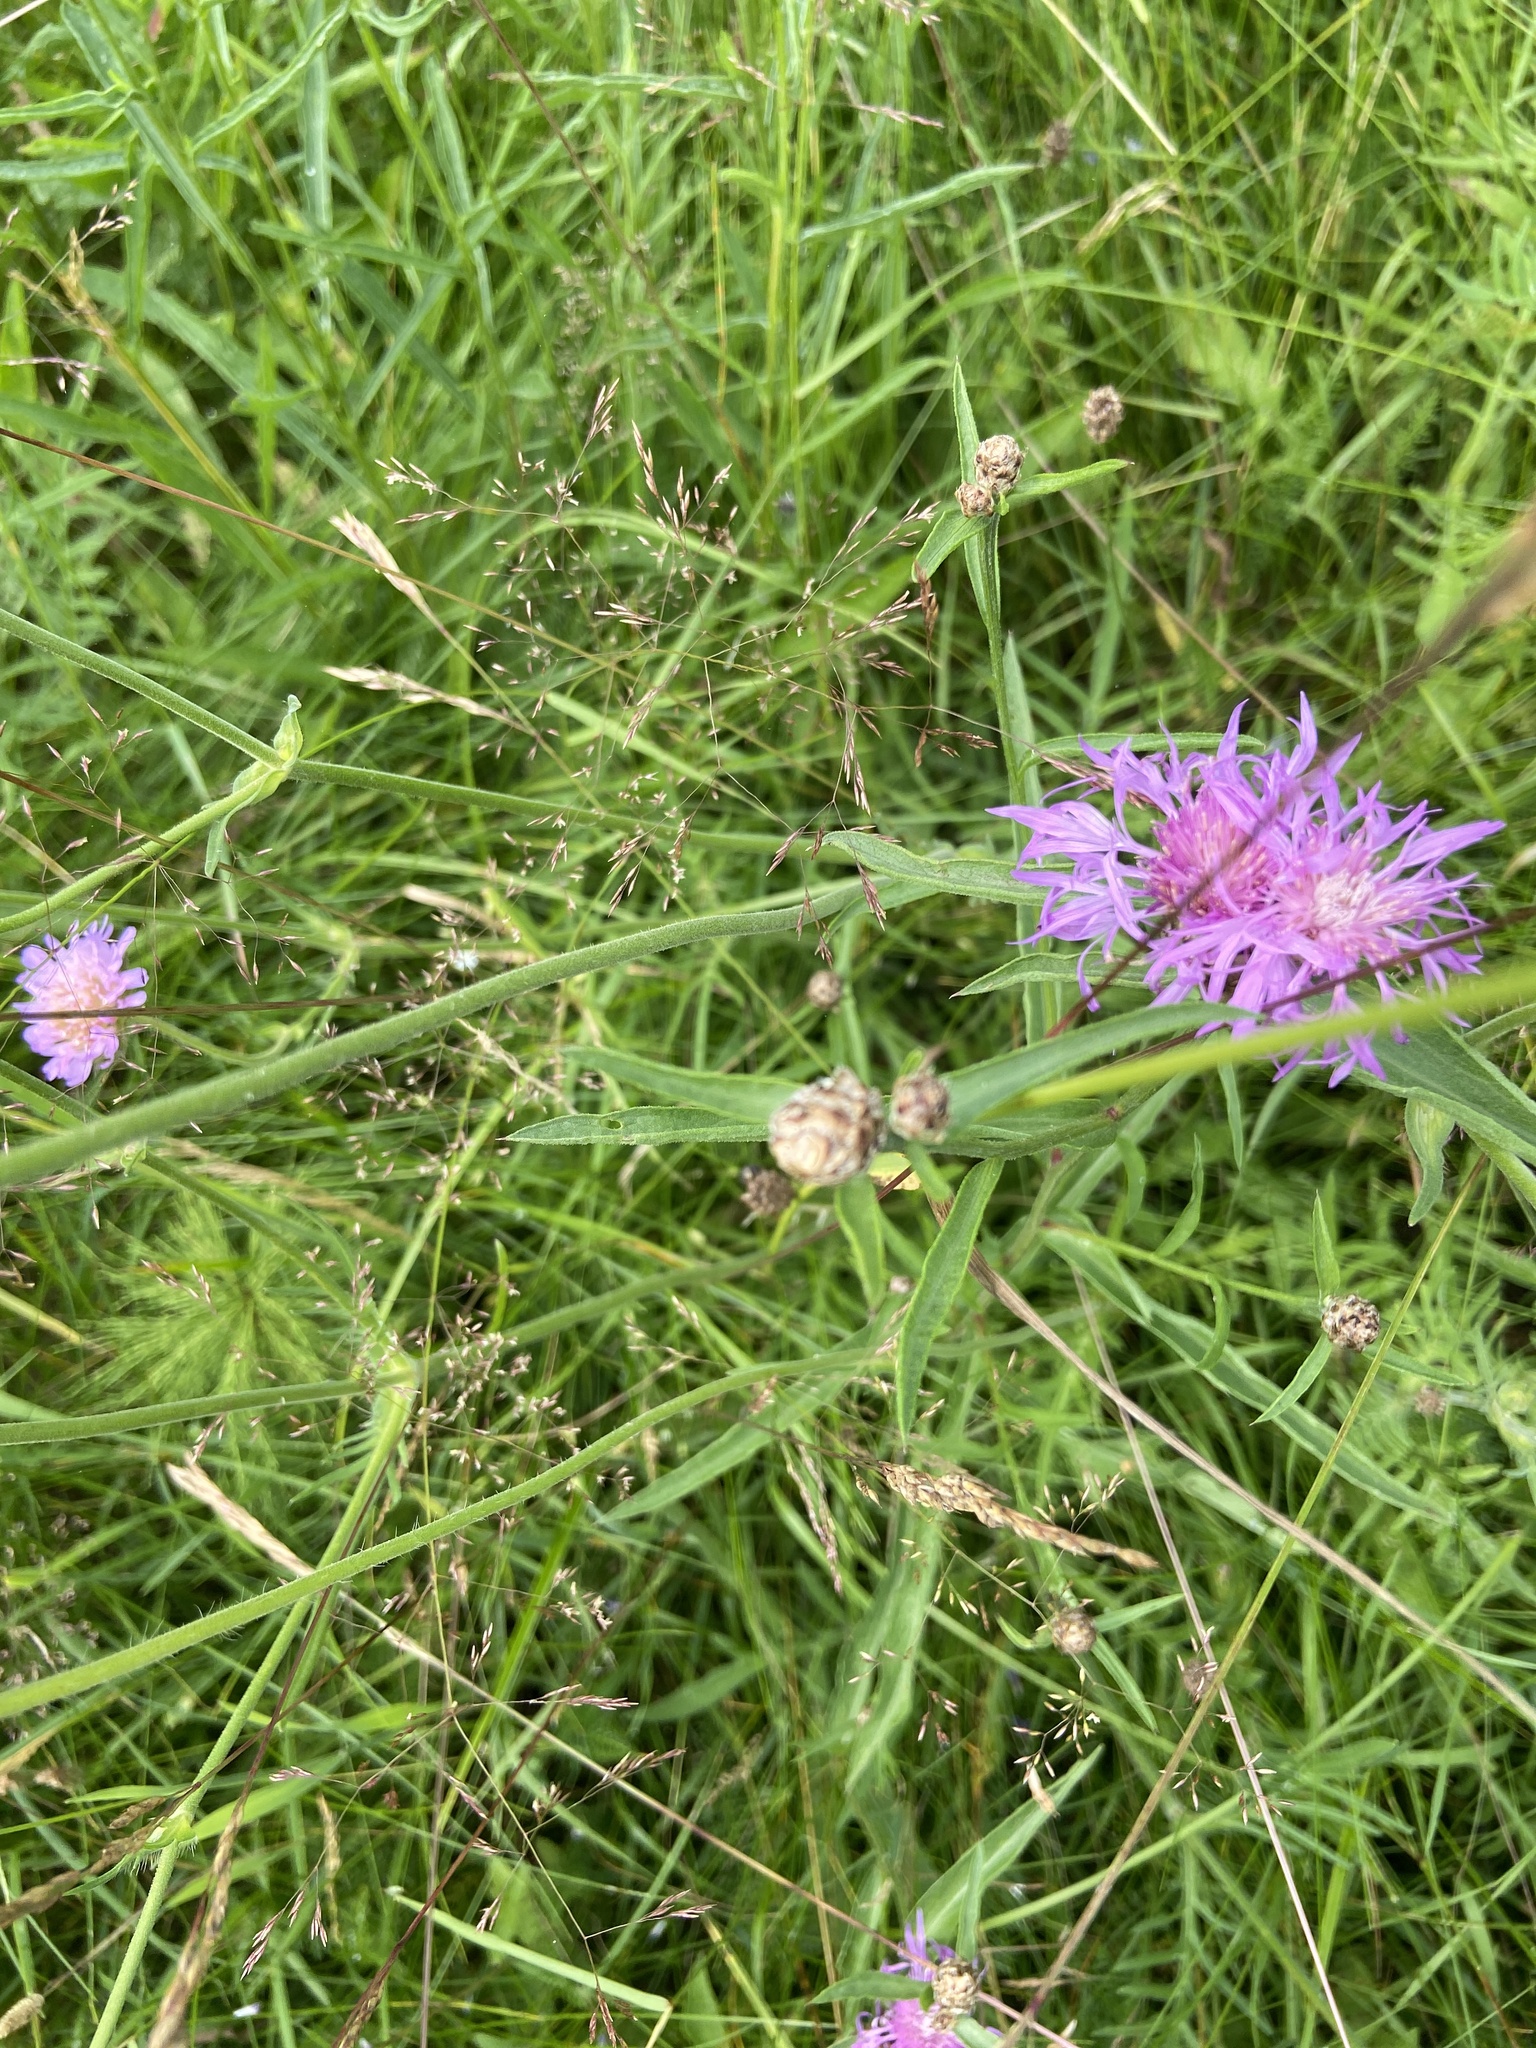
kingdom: Plantae
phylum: Tracheophyta
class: Magnoliopsida
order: Asterales
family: Asteraceae
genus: Centaurea
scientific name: Centaurea jacea
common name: Brown knapweed
